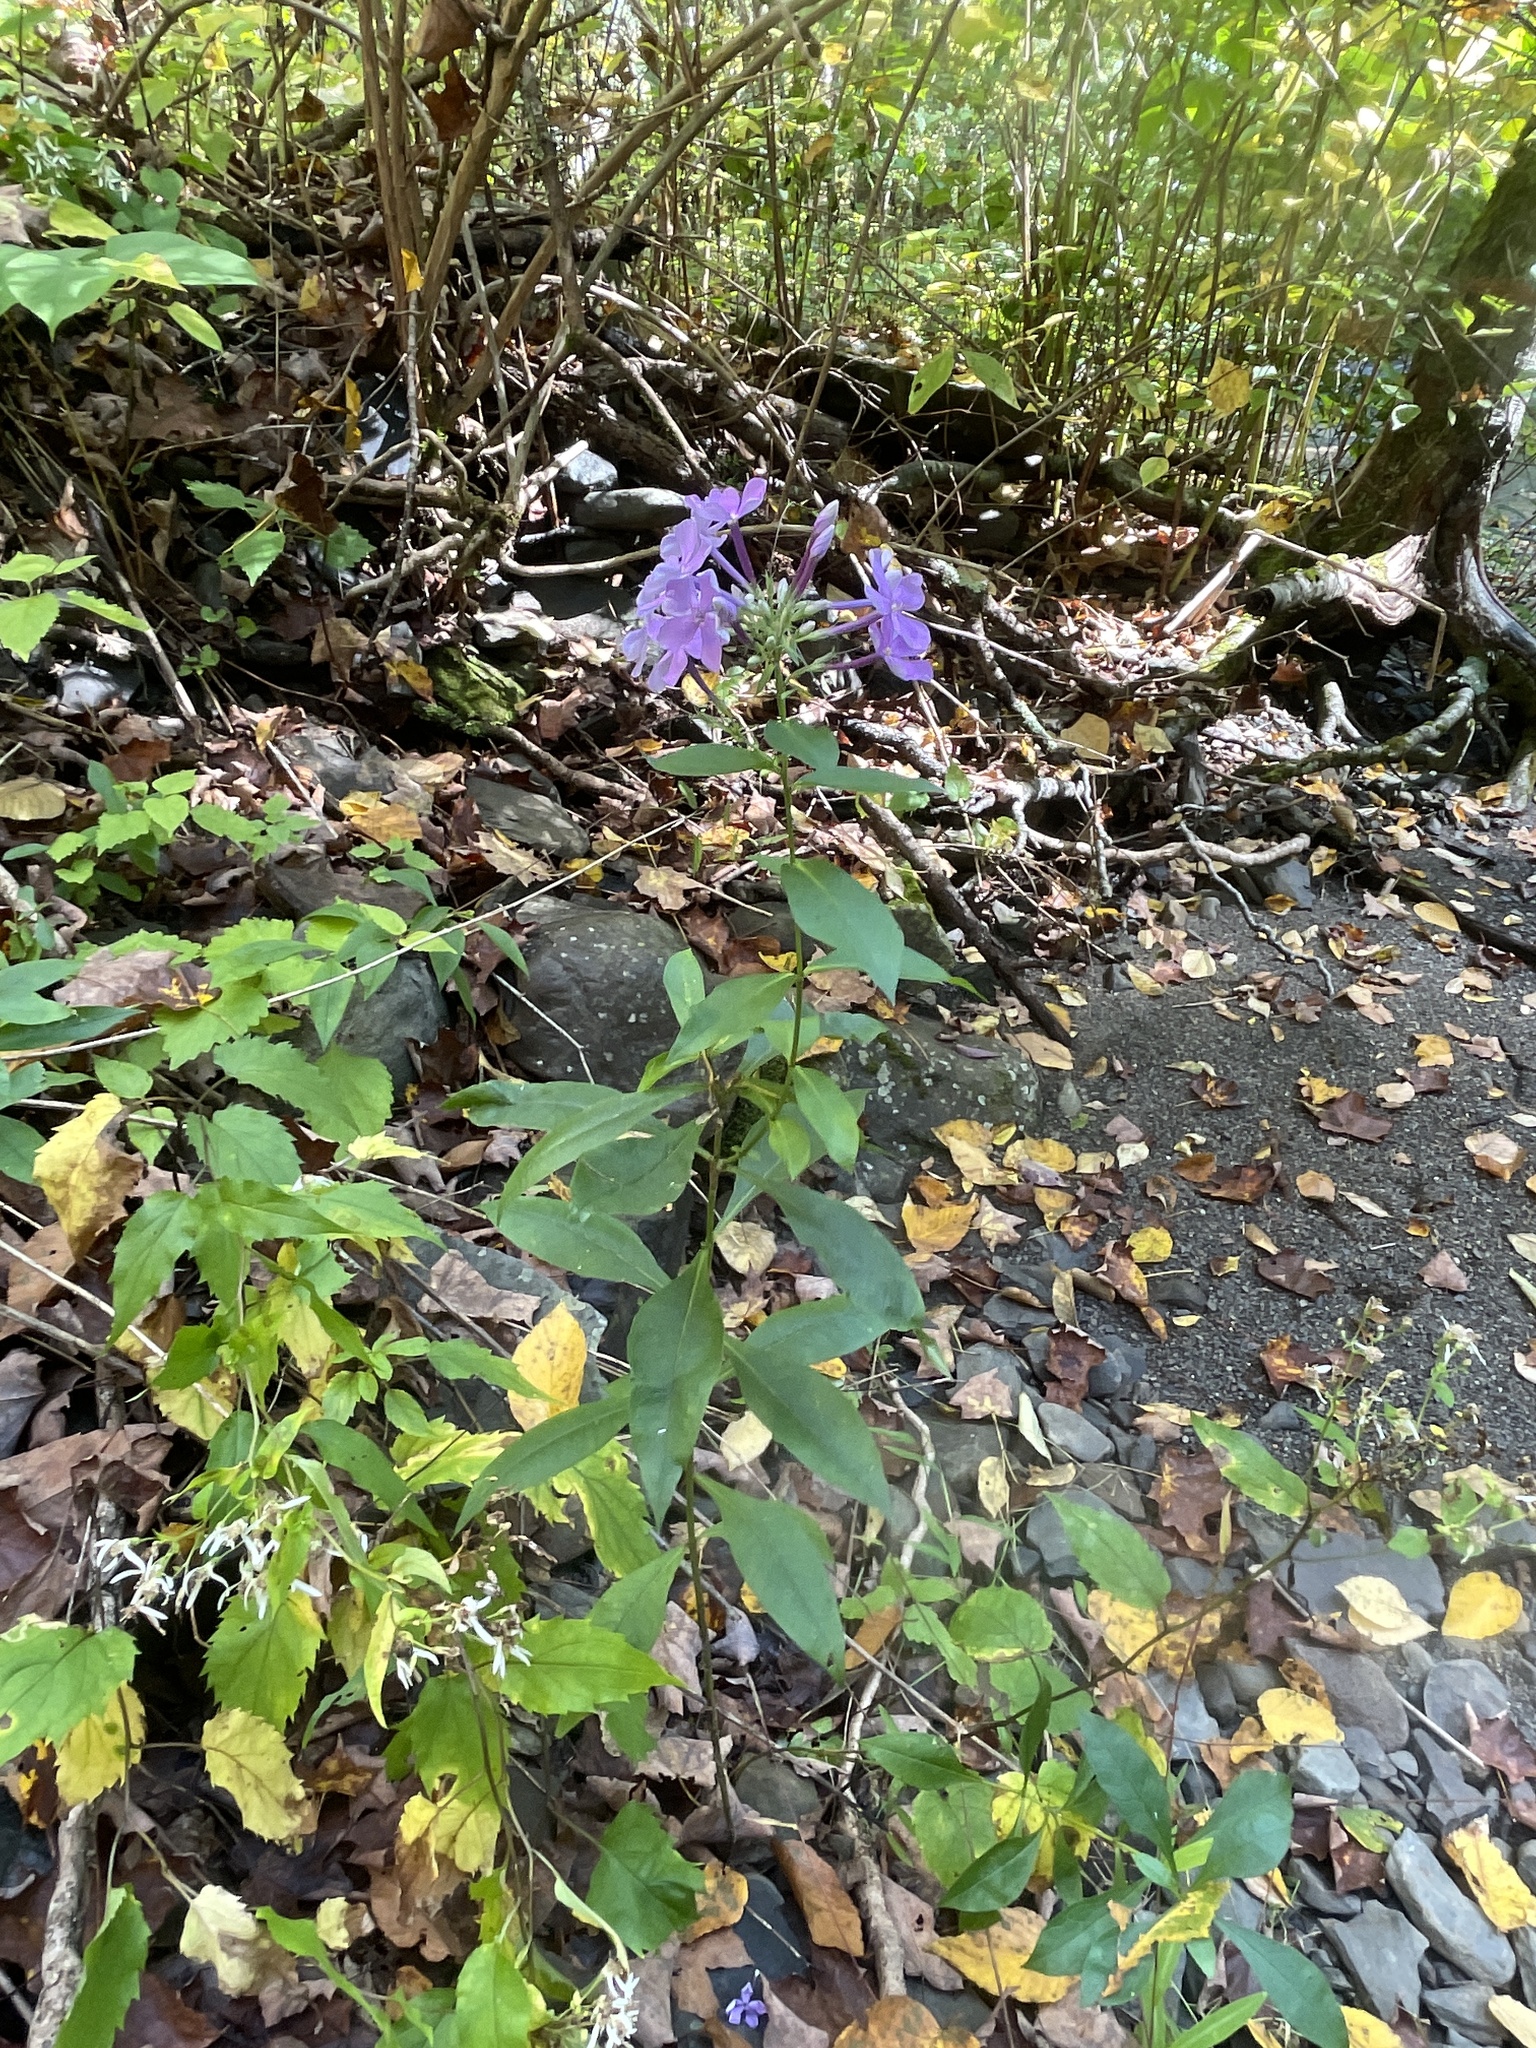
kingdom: Plantae
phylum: Tracheophyta
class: Magnoliopsida
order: Ericales
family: Polemoniaceae
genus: Phlox
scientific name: Phlox paniculata
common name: Fall phlox
